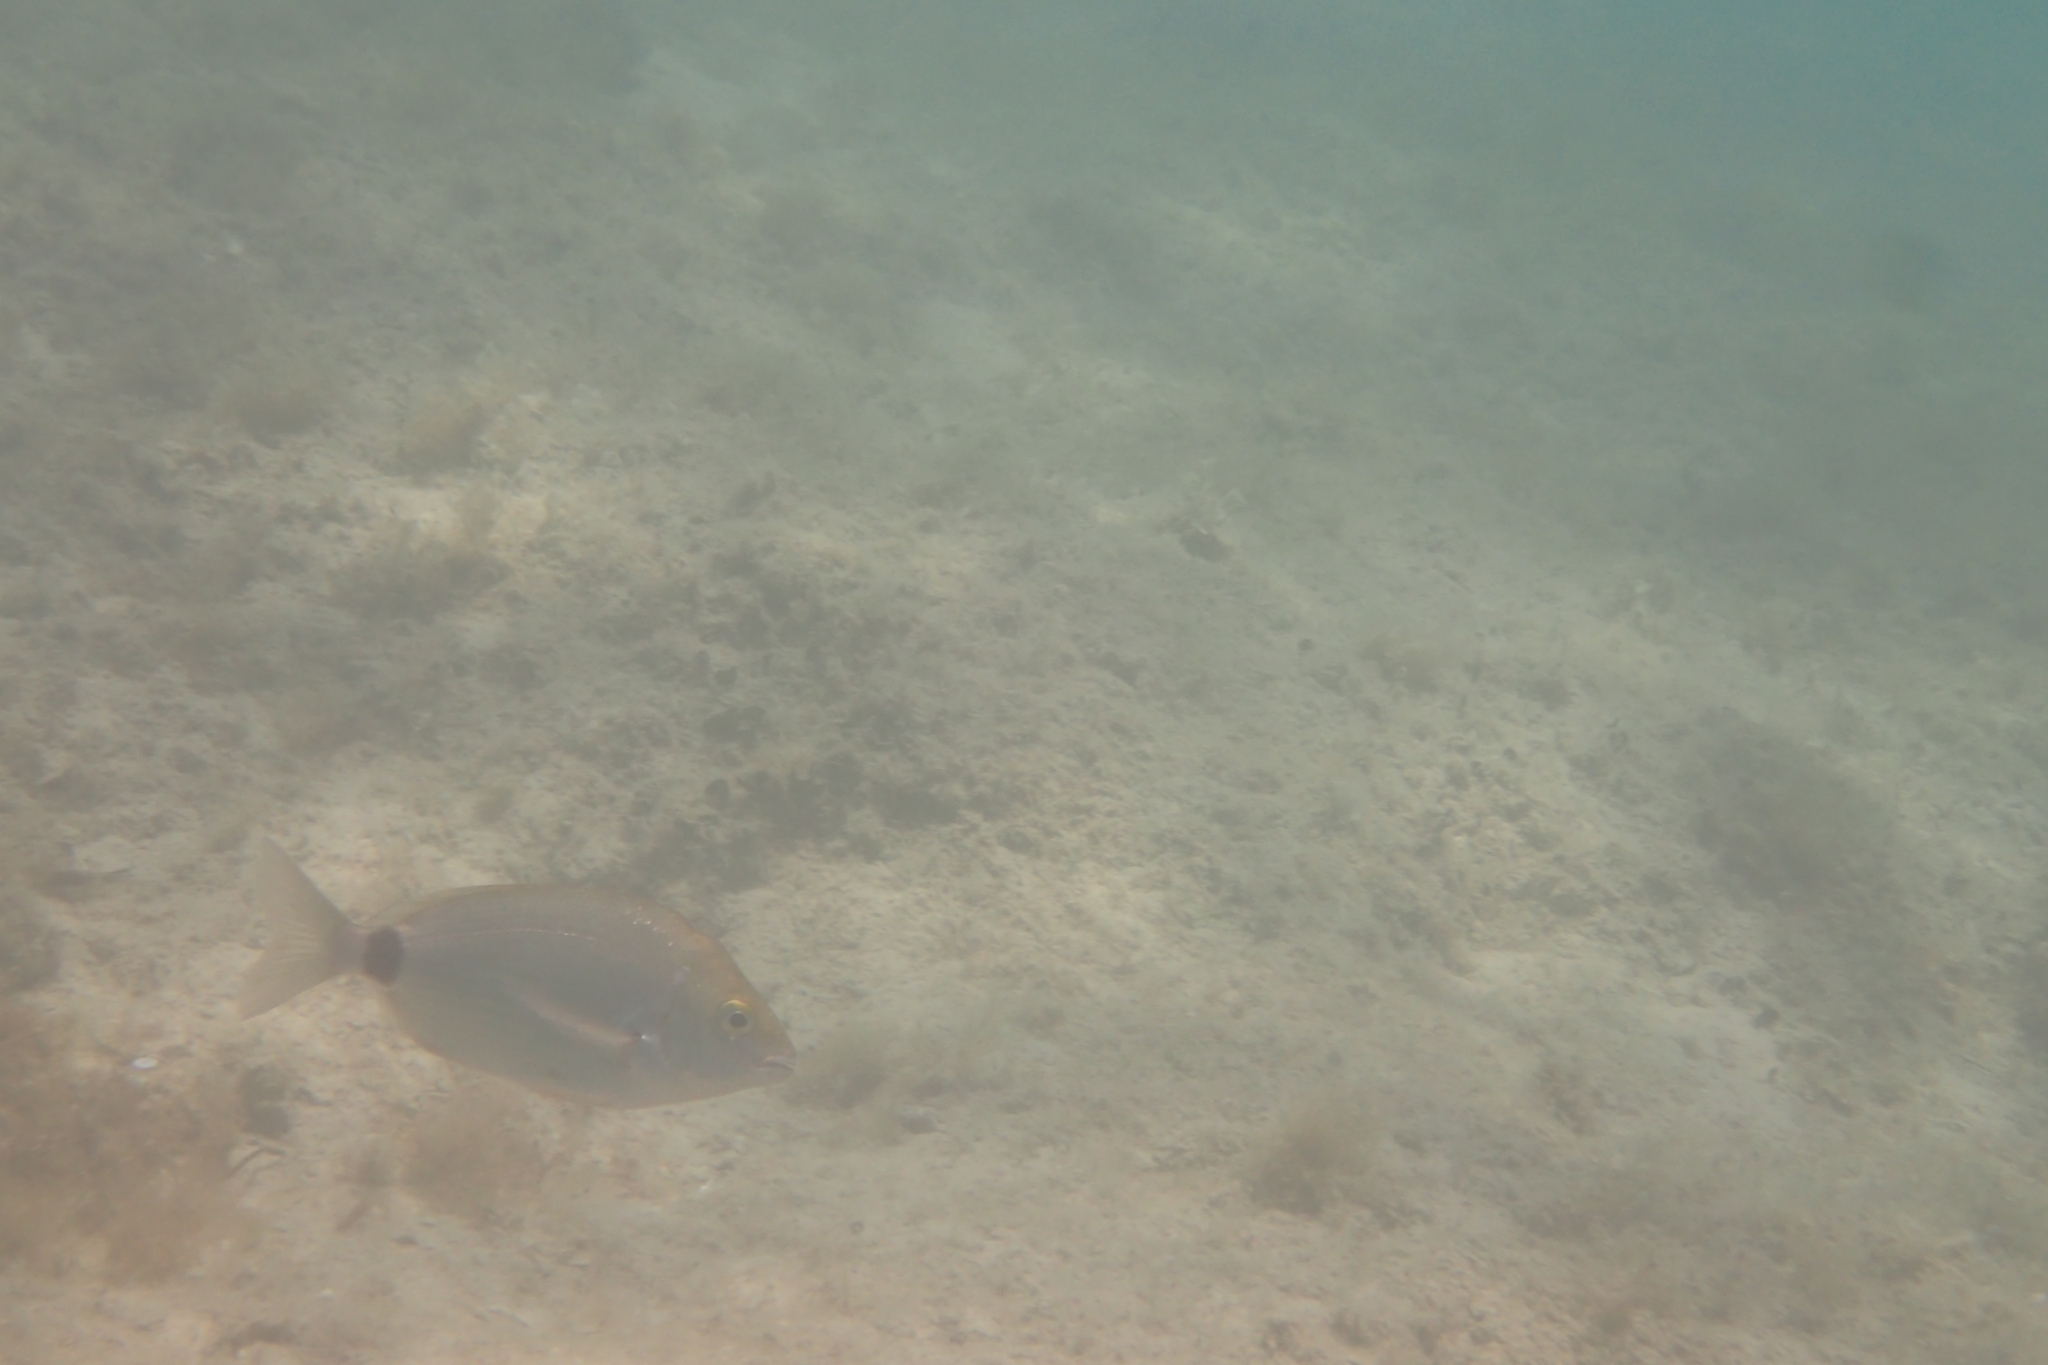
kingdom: Animalia
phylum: Chordata
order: Perciformes
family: Sparidae
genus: Diplodus
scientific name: Diplodus annularis
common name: Annular seabream
